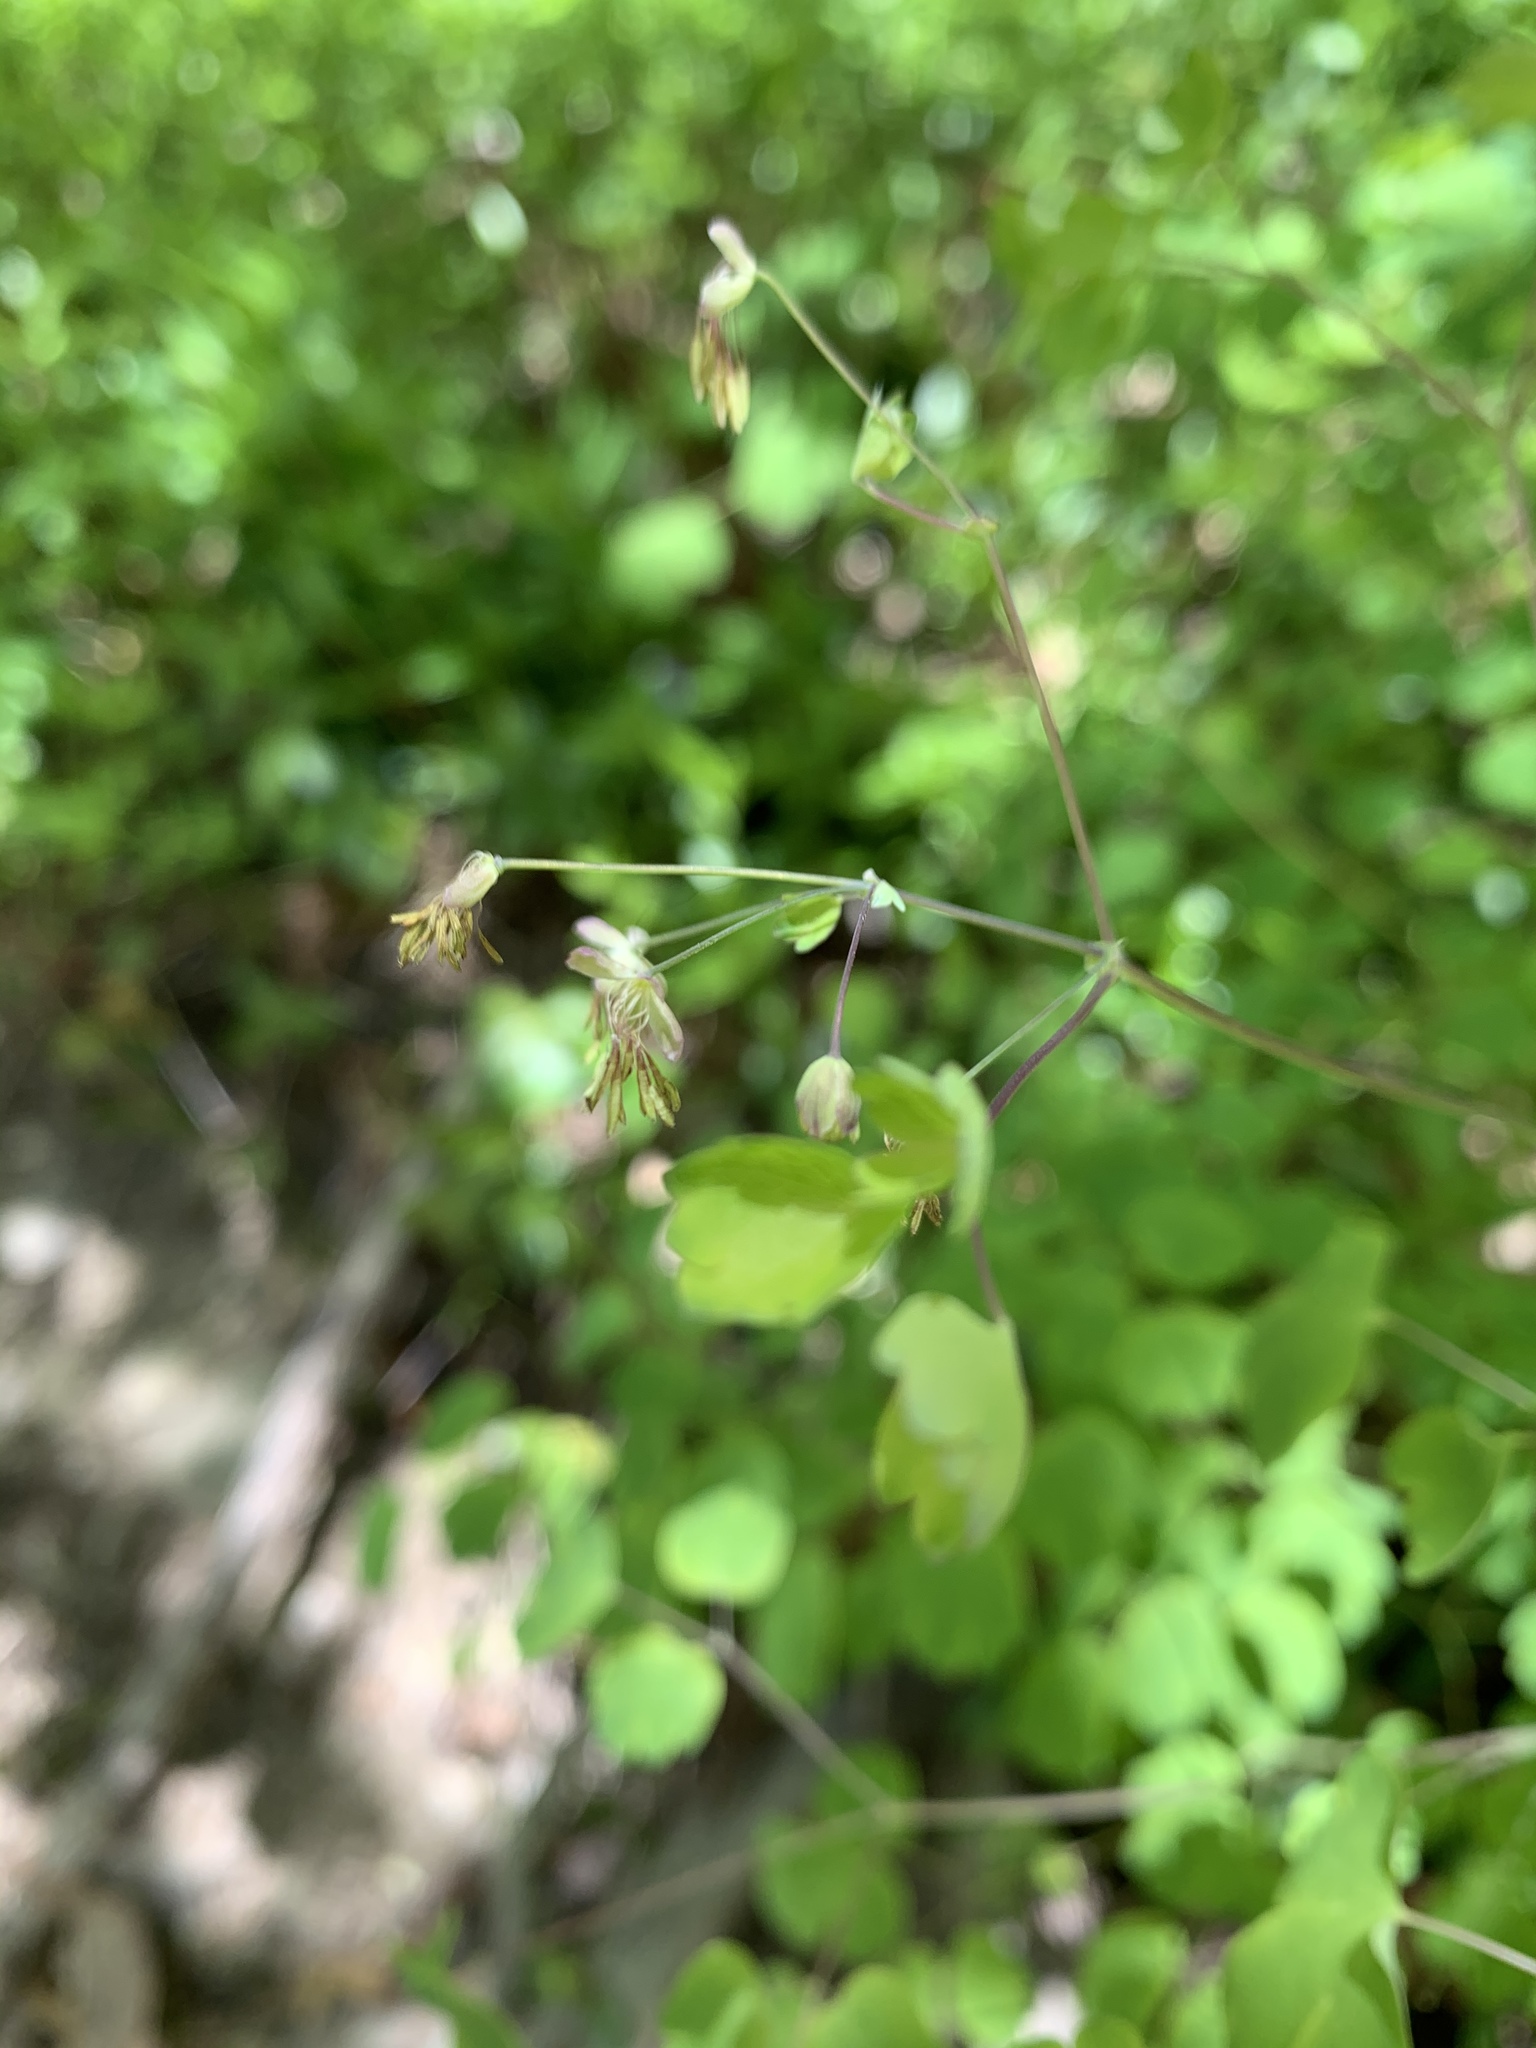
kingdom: Plantae
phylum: Tracheophyta
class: Magnoliopsida
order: Ranunculales
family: Ranunculaceae
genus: Thalictrum
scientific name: Thalictrum dioicum
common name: Early meadow-rue
